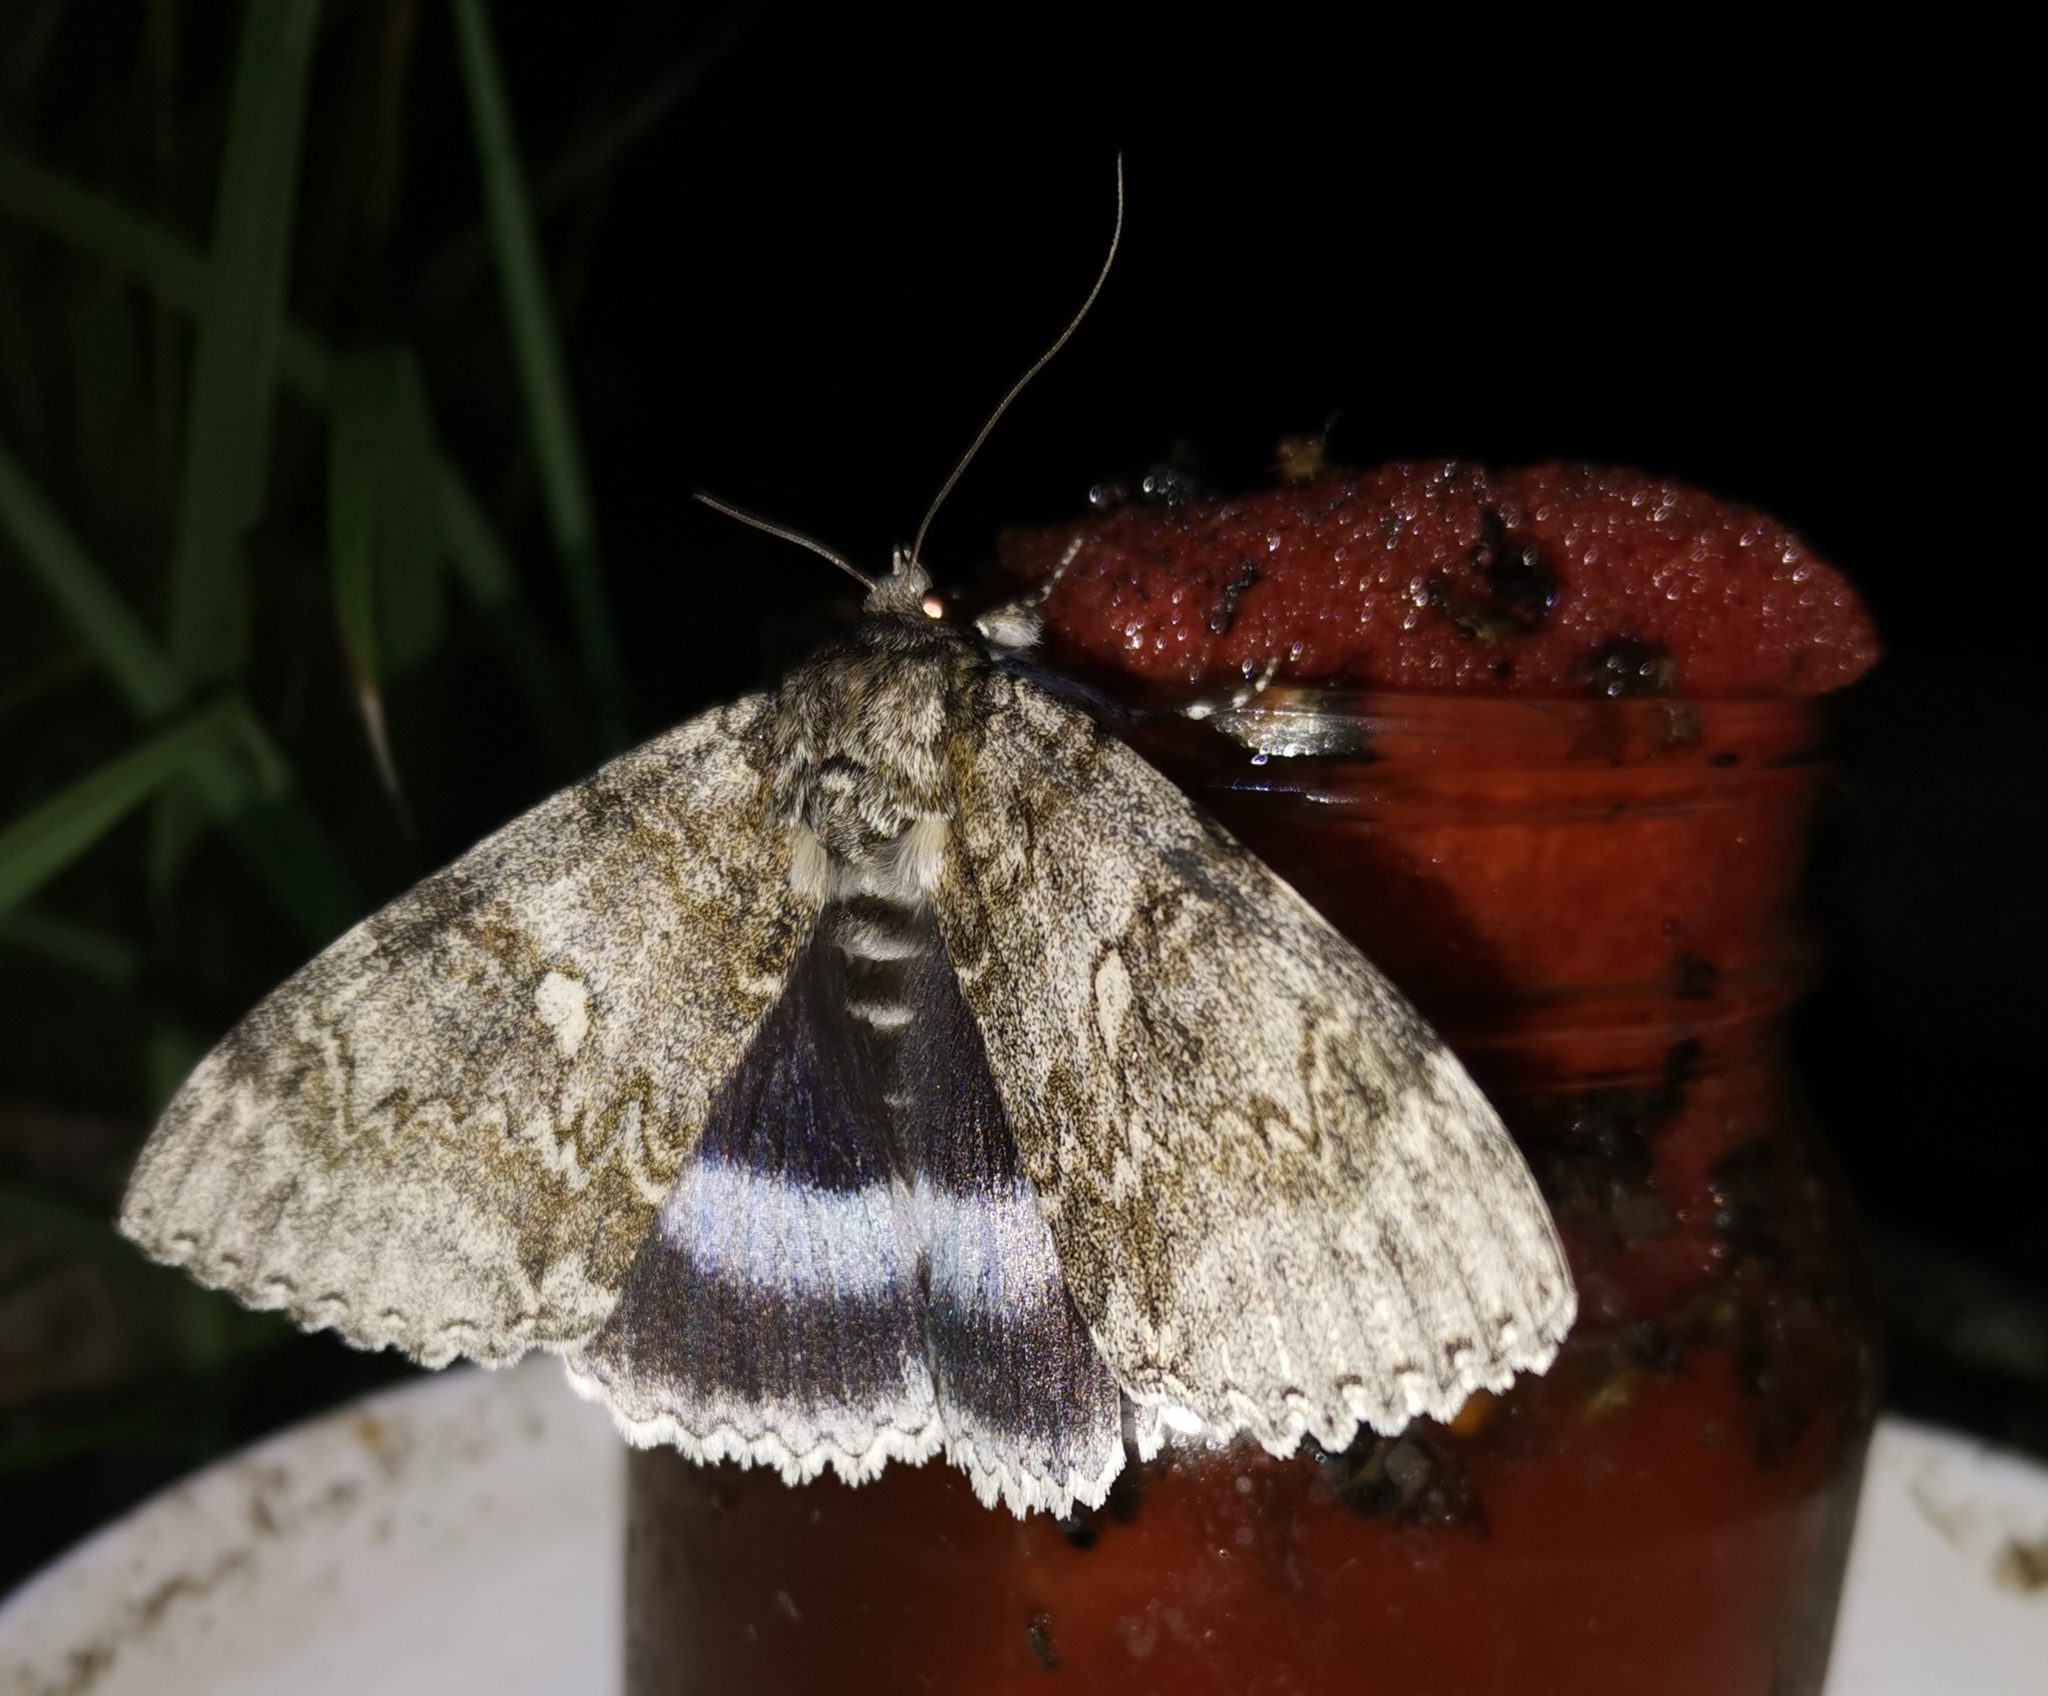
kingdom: Animalia
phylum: Arthropoda
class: Insecta
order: Lepidoptera
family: Erebidae
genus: Catocala
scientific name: Catocala fraxini
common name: Clifden nonpareil
